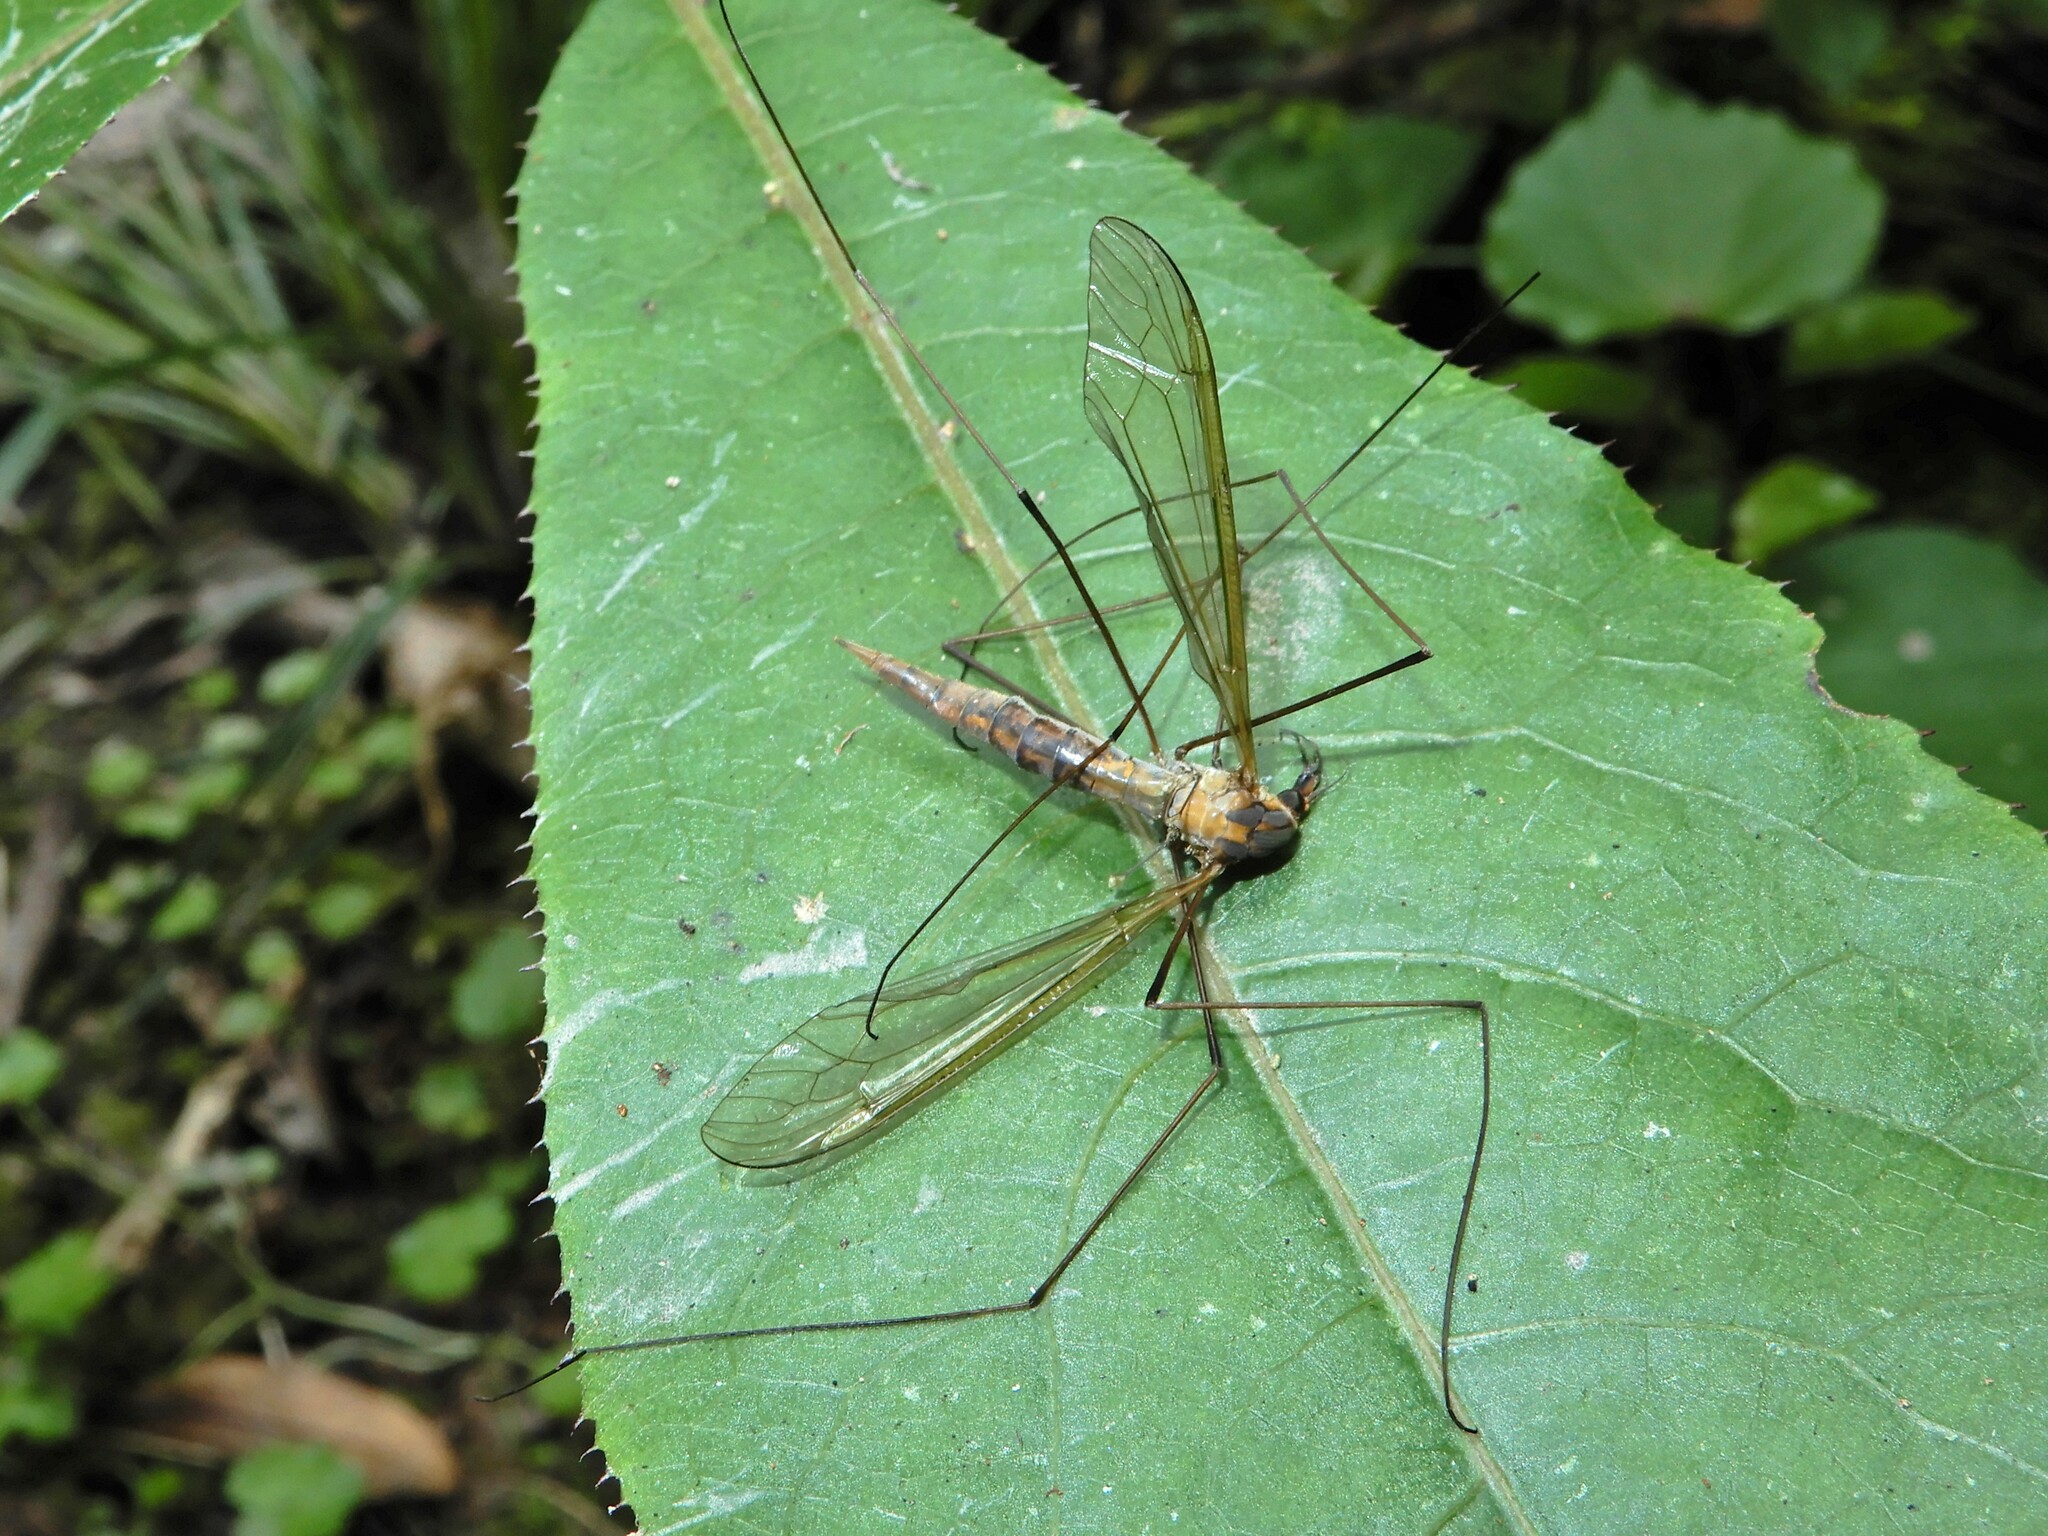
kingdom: Animalia
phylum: Arthropoda
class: Insecta
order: Diptera
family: Tipulidae
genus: Leptotarsus
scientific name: Leptotarsus albistigma
